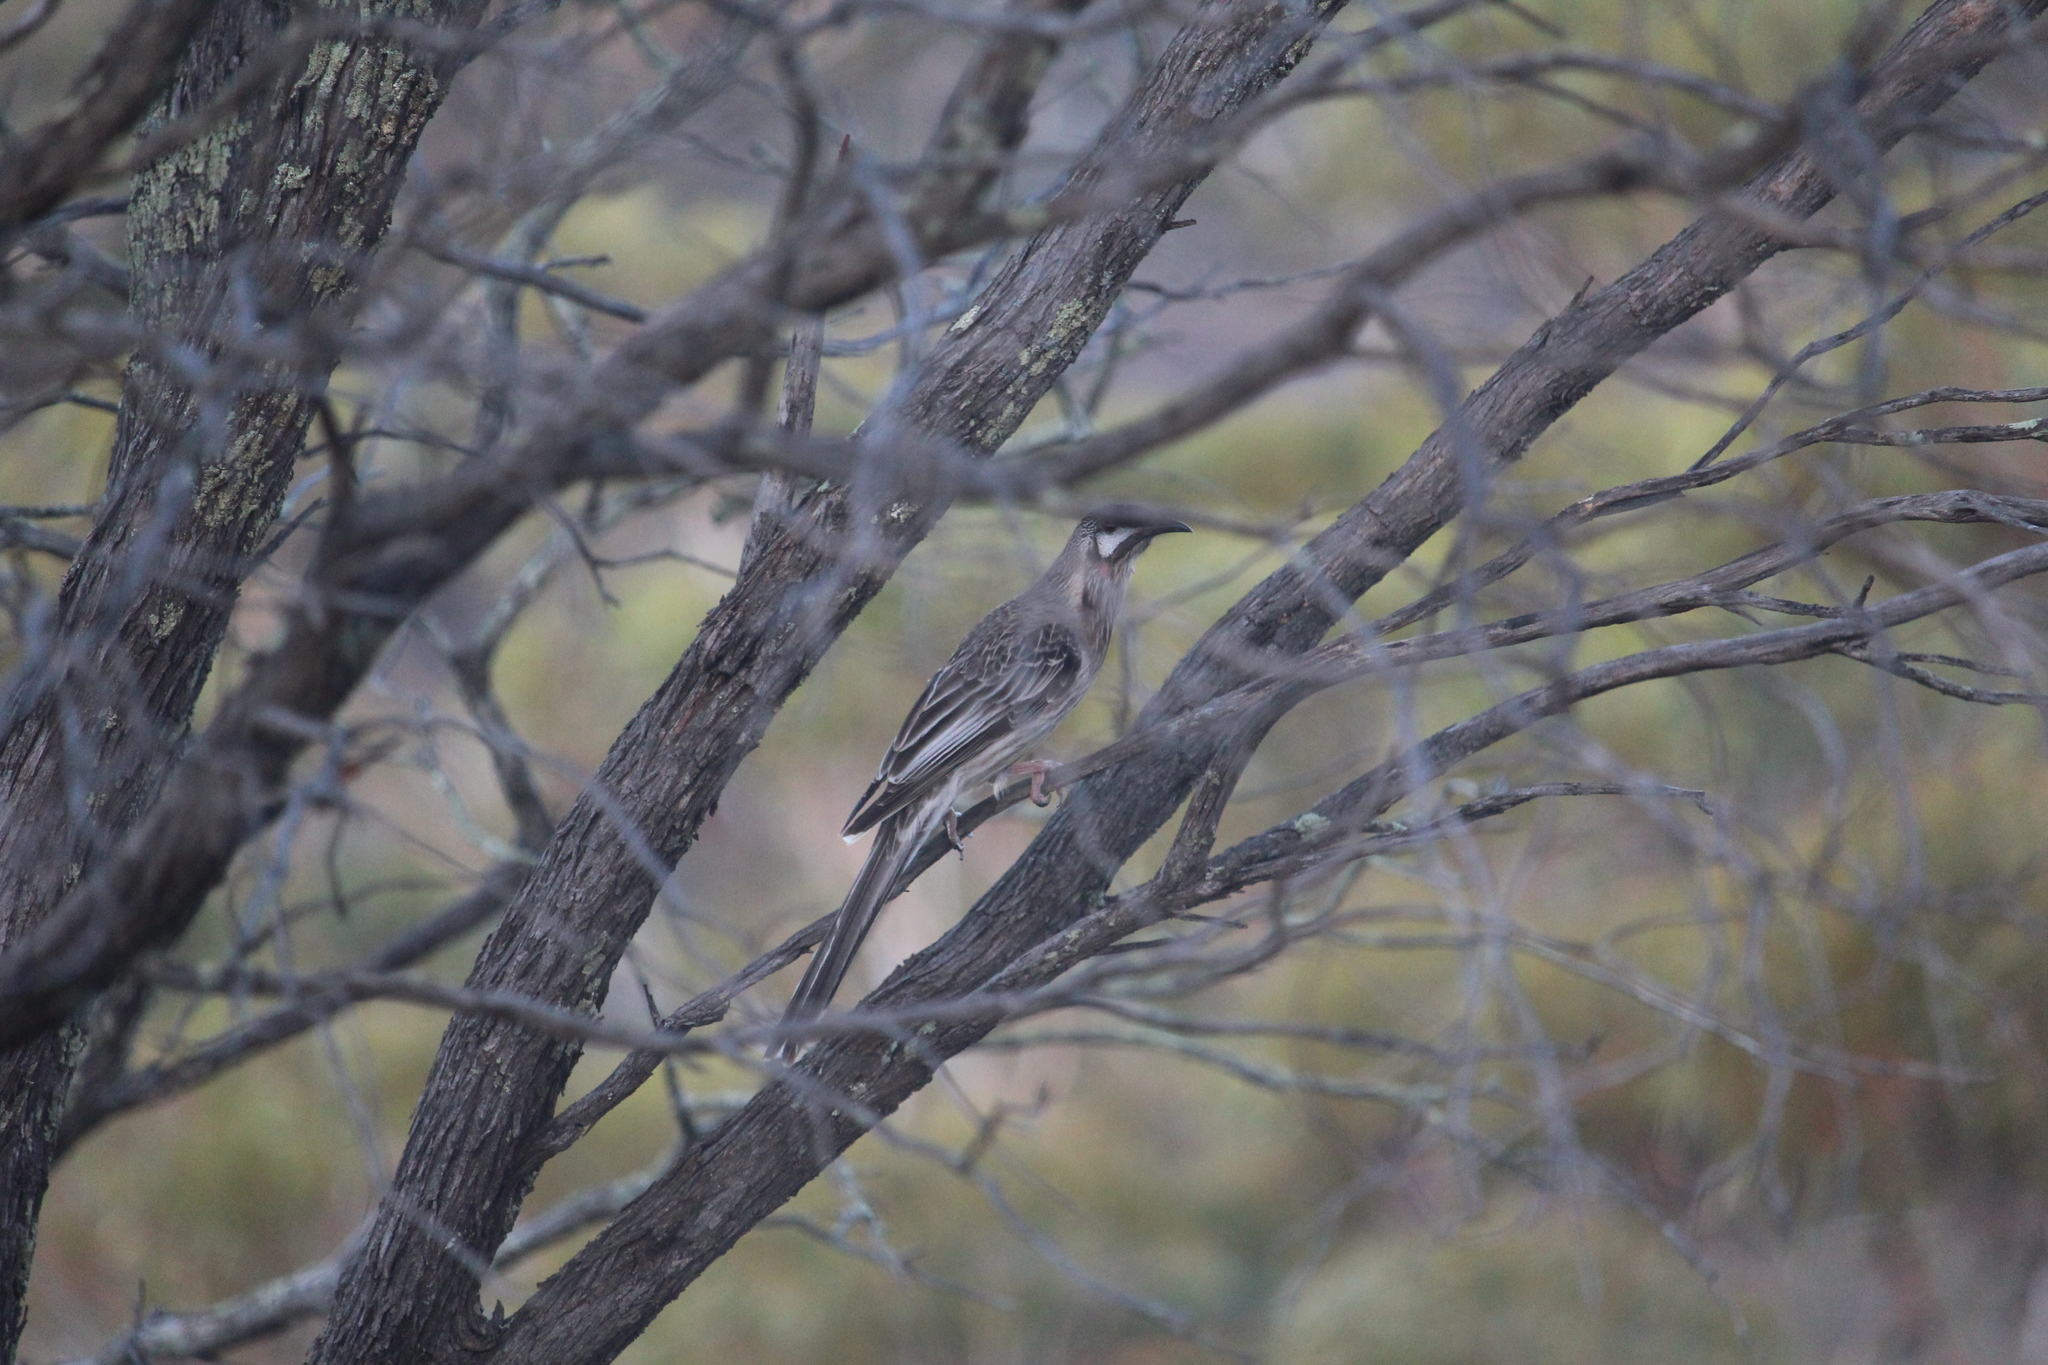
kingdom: Animalia
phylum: Chordata
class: Aves
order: Passeriformes
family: Meliphagidae
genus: Anthochaera
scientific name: Anthochaera carunculata
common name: Red wattlebird
